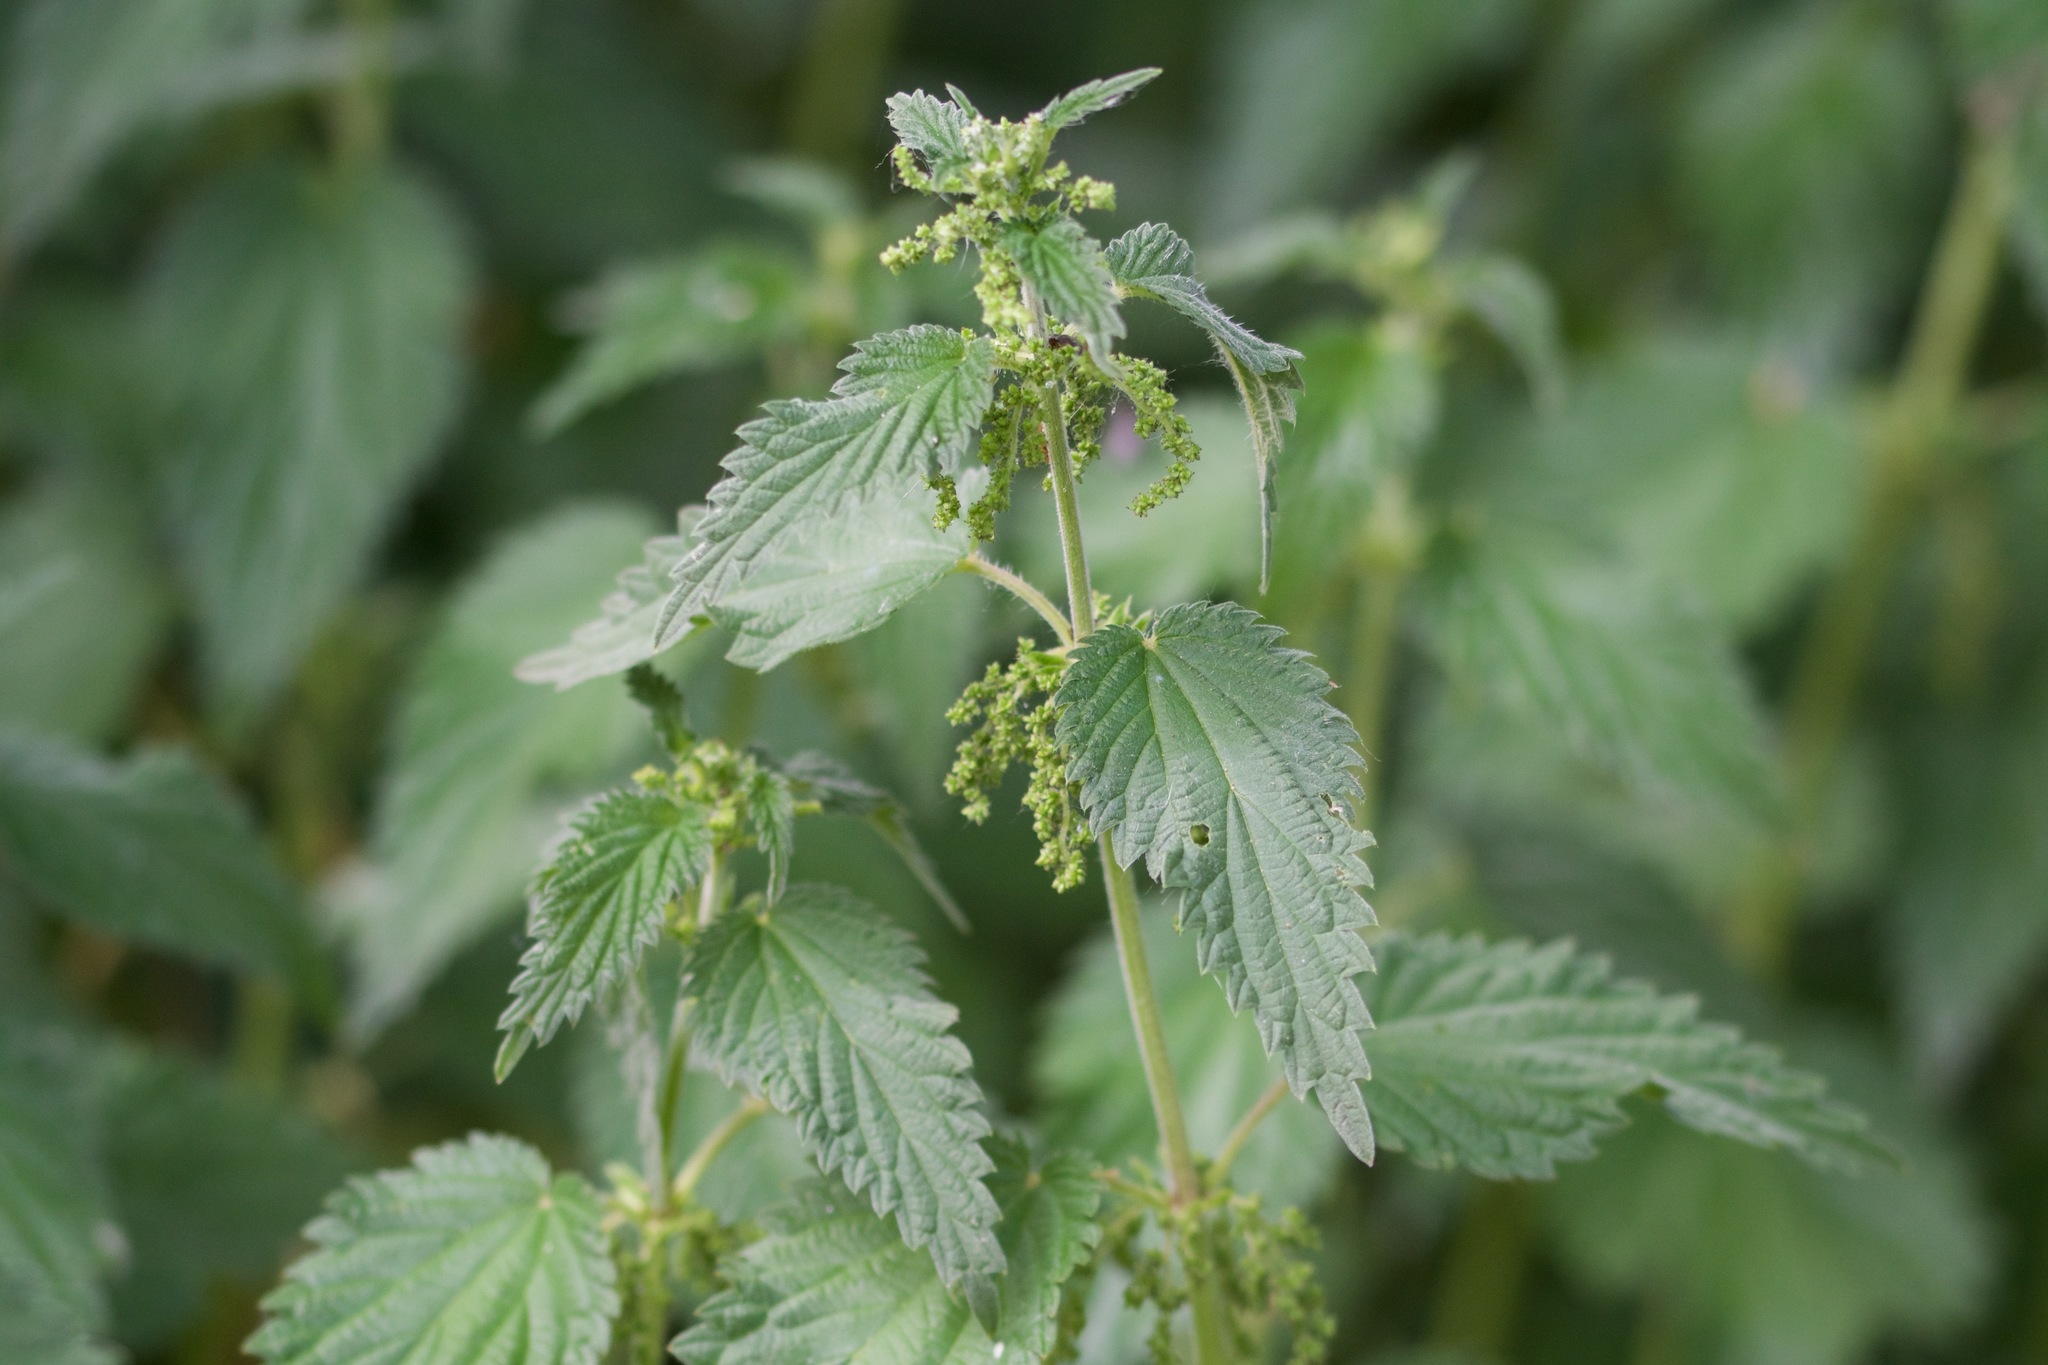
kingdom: Plantae
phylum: Tracheophyta
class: Magnoliopsida
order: Rosales
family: Urticaceae
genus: Urtica
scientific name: Urtica dioica
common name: Common nettle
